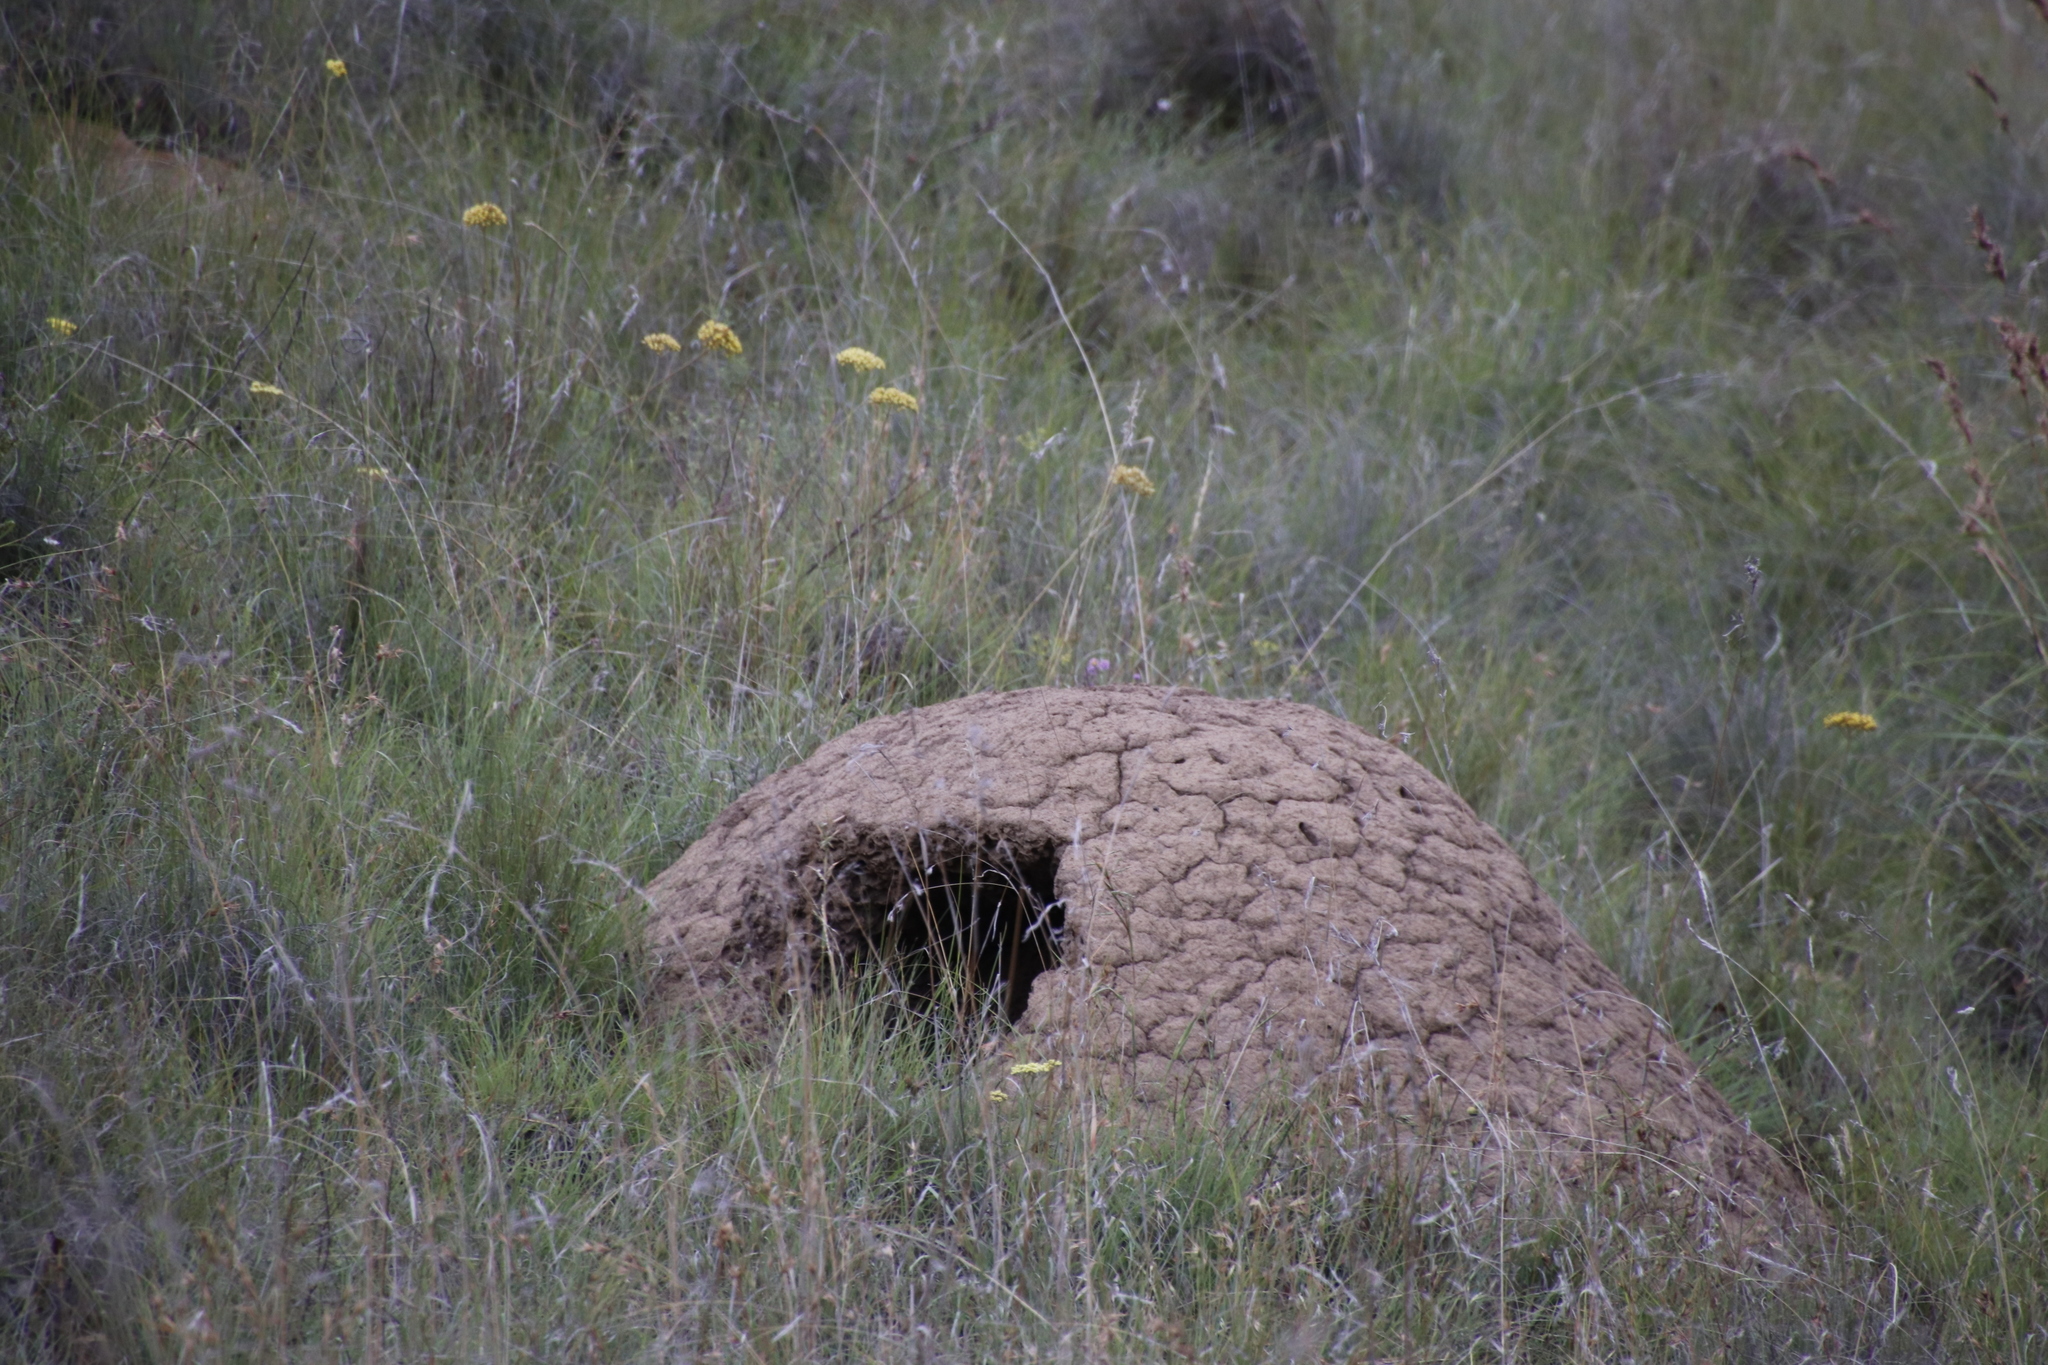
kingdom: Animalia
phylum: Chordata
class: Mammalia
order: Tubulidentata
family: Orycteropodidae
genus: Orycteropus
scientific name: Orycteropus afer
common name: Aardvark
